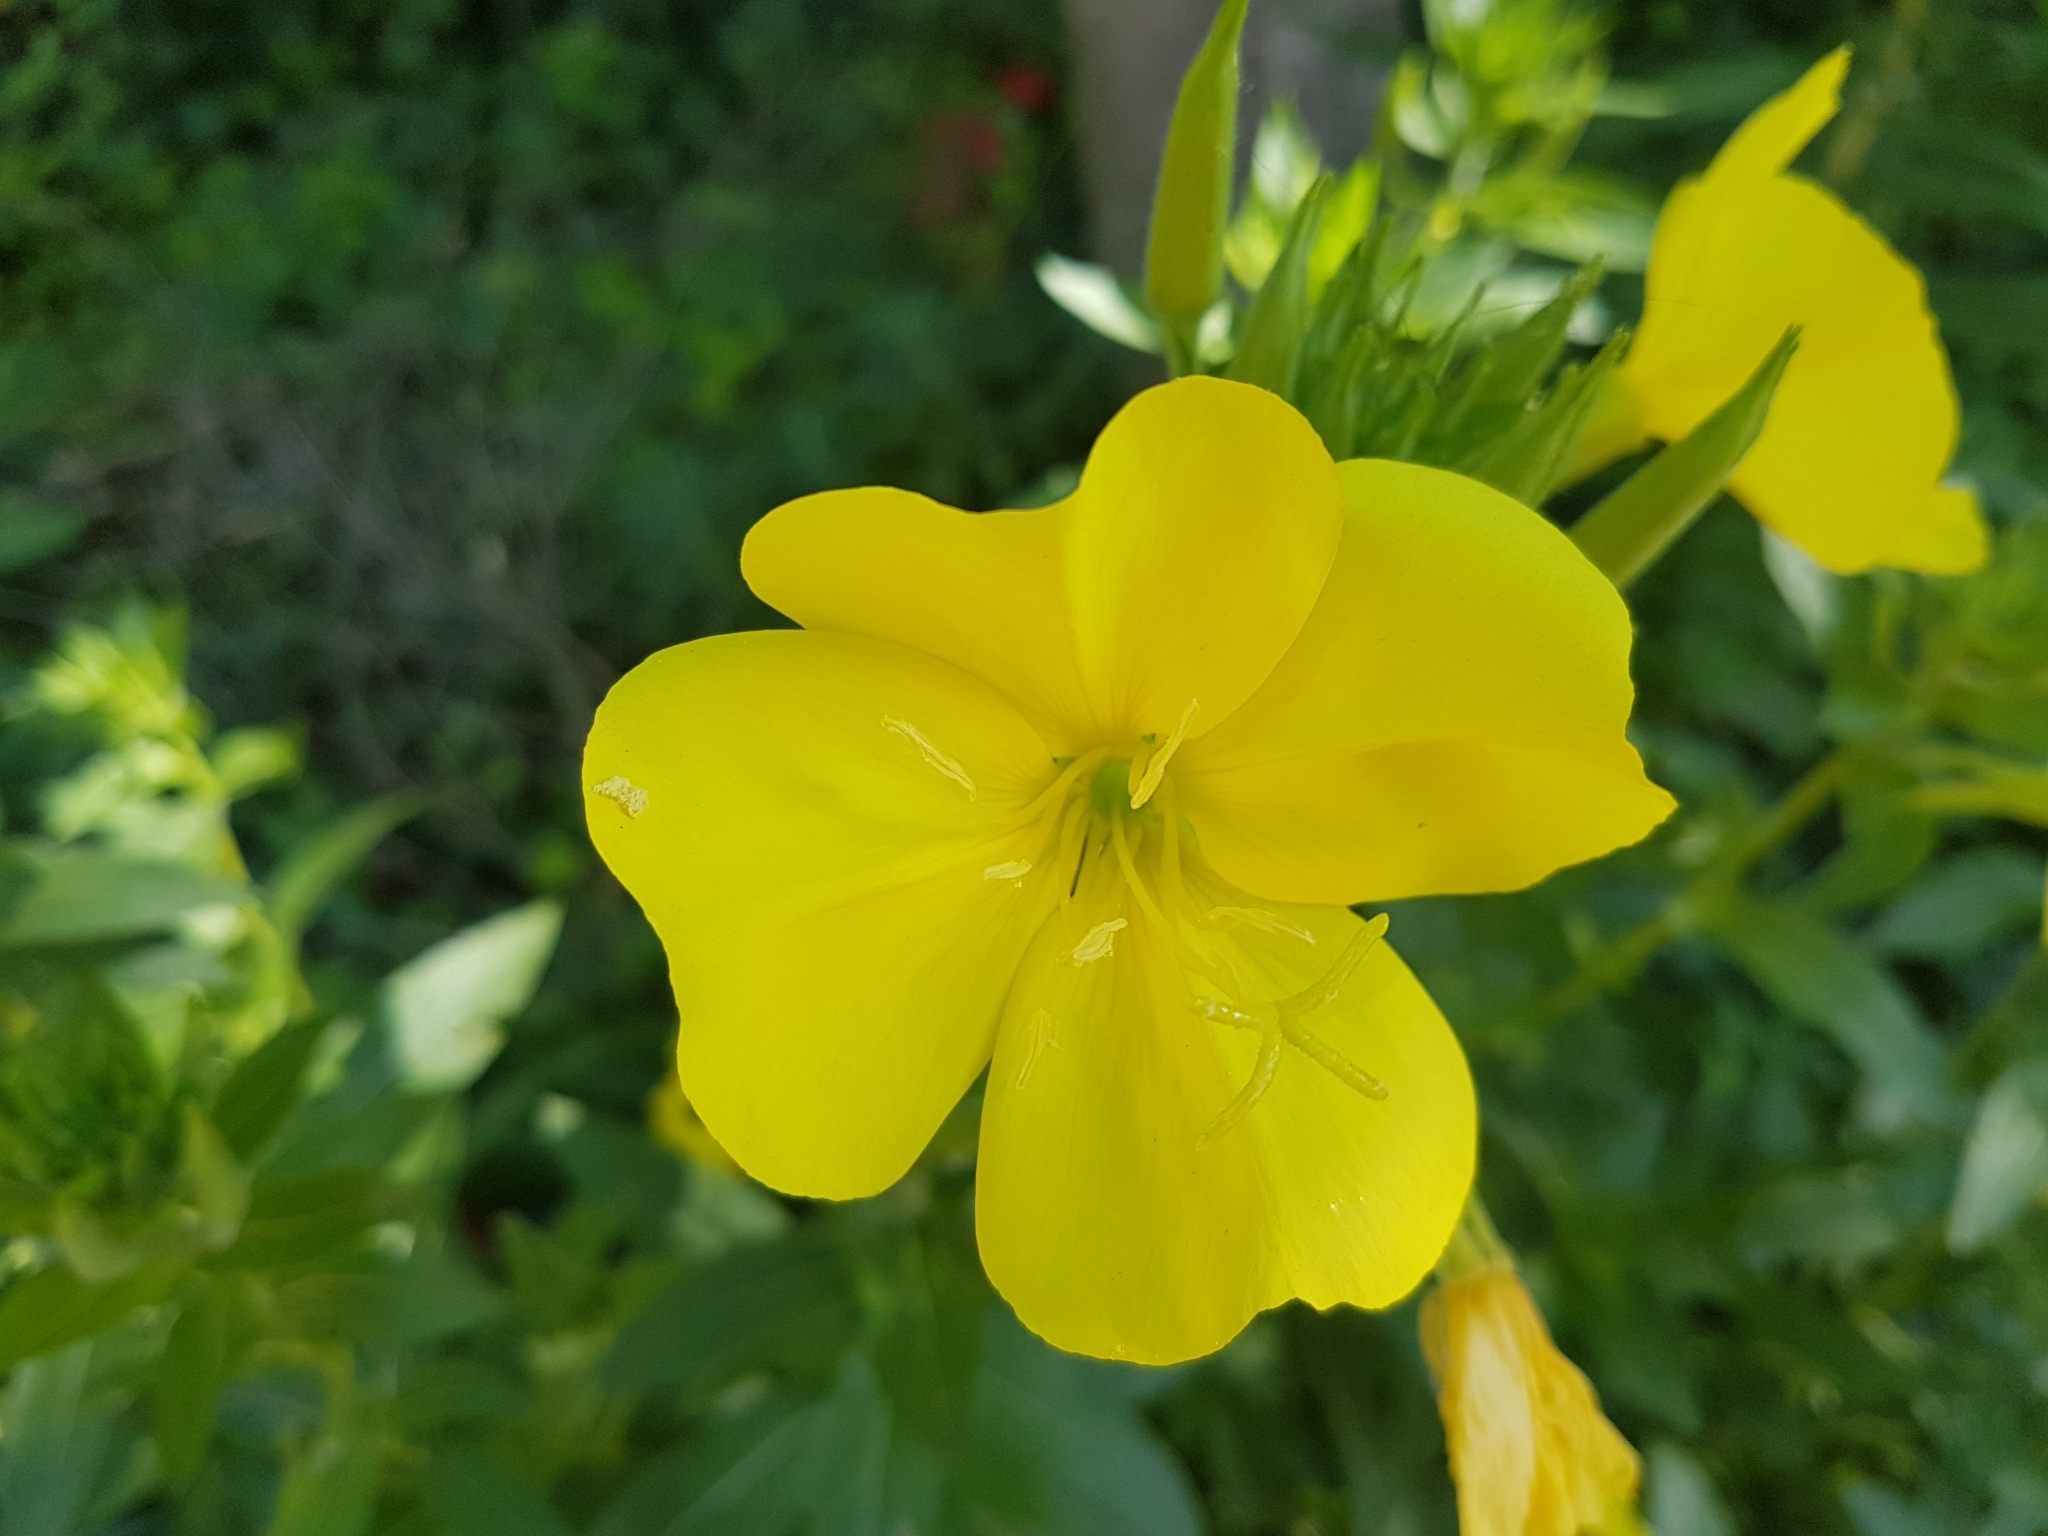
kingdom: Plantae
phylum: Tracheophyta
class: Magnoliopsida
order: Myrtales
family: Onagraceae
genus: Oenothera
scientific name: Oenothera glazioviana
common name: Large-flowered evening-primrose
